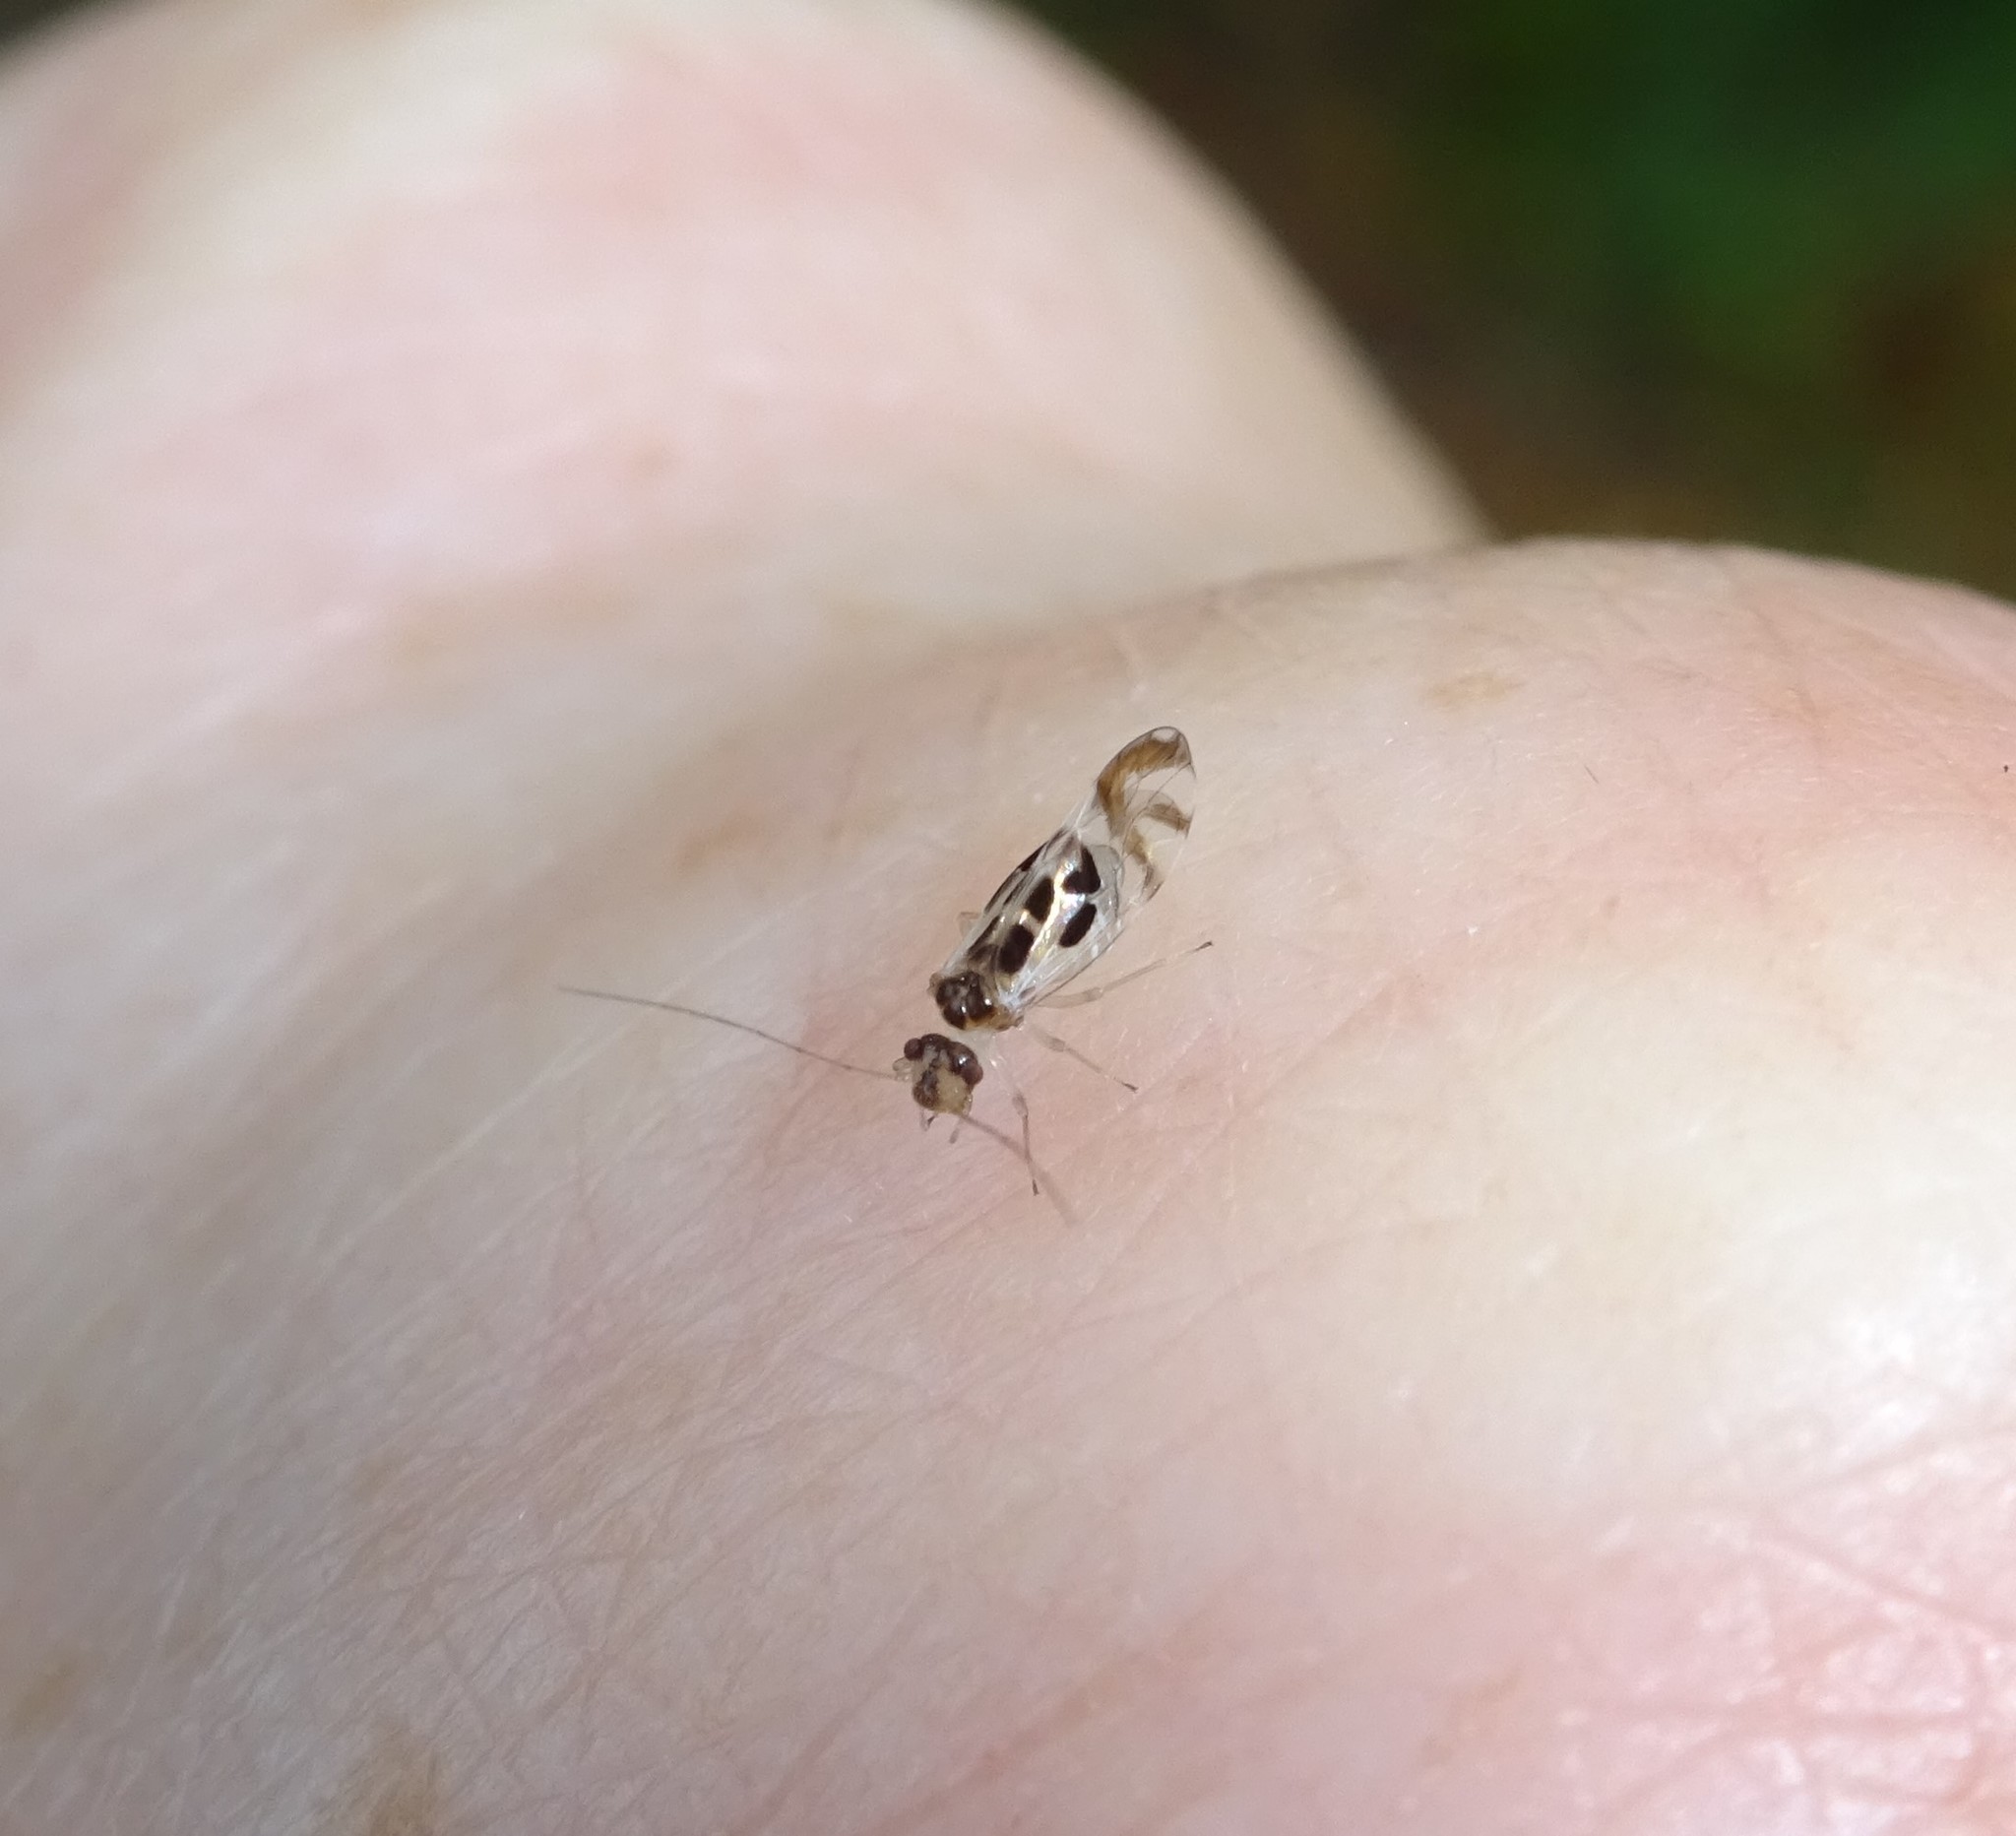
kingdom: Animalia
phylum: Arthropoda
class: Insecta
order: Psocodea
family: Stenopsocidae
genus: Graphopsocus
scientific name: Graphopsocus cruciatus
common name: Lizard bark louse
